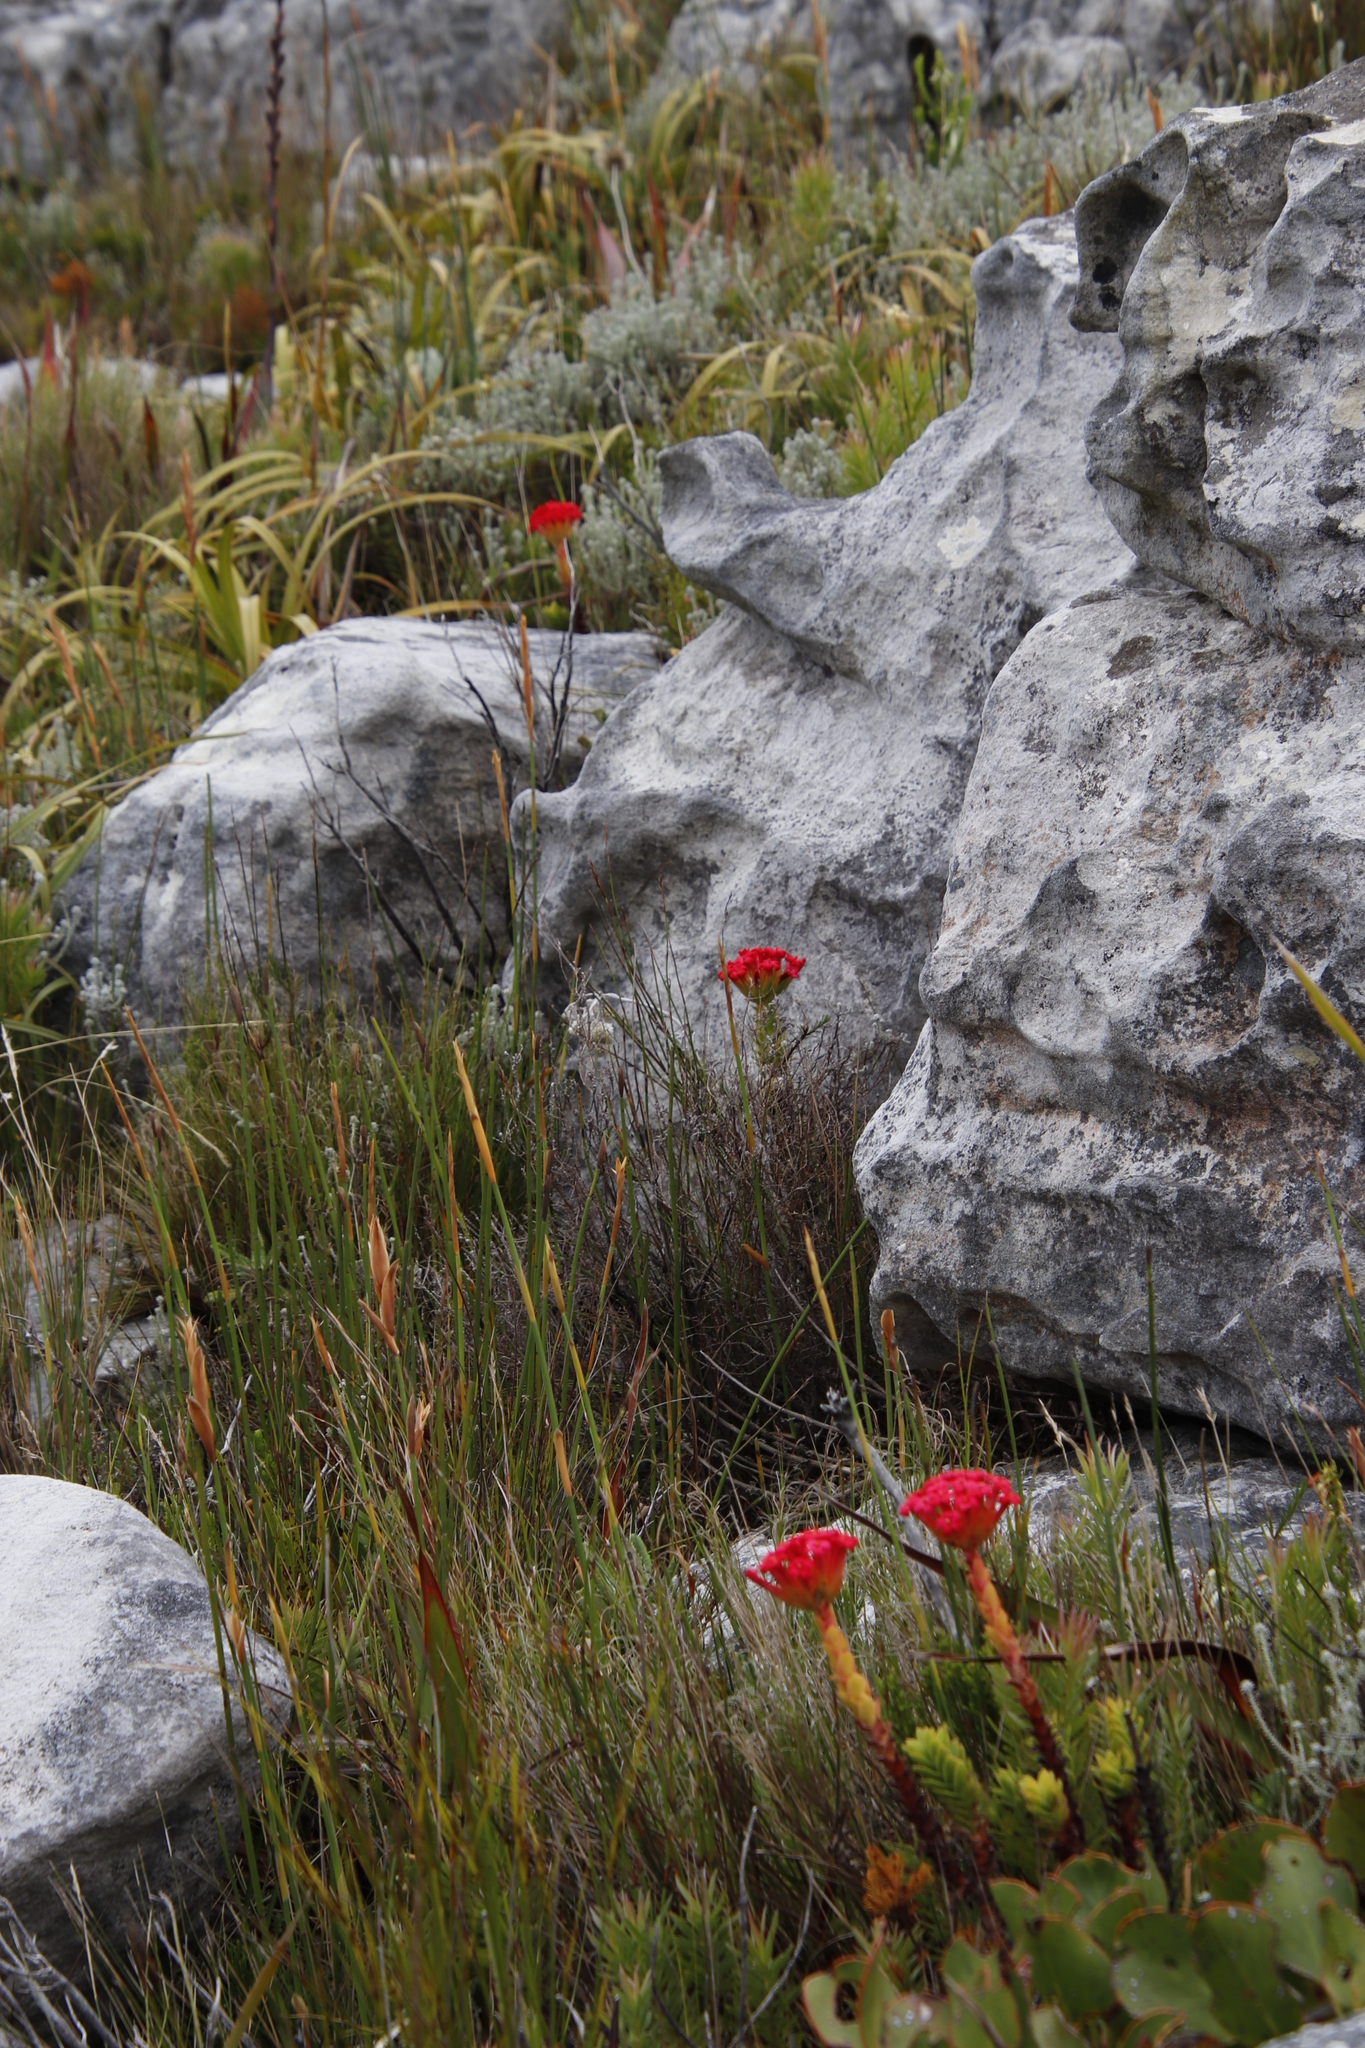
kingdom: Plantae
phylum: Tracheophyta
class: Magnoliopsida
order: Saxifragales
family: Crassulaceae
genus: Crassula
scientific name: Crassula coccinea
